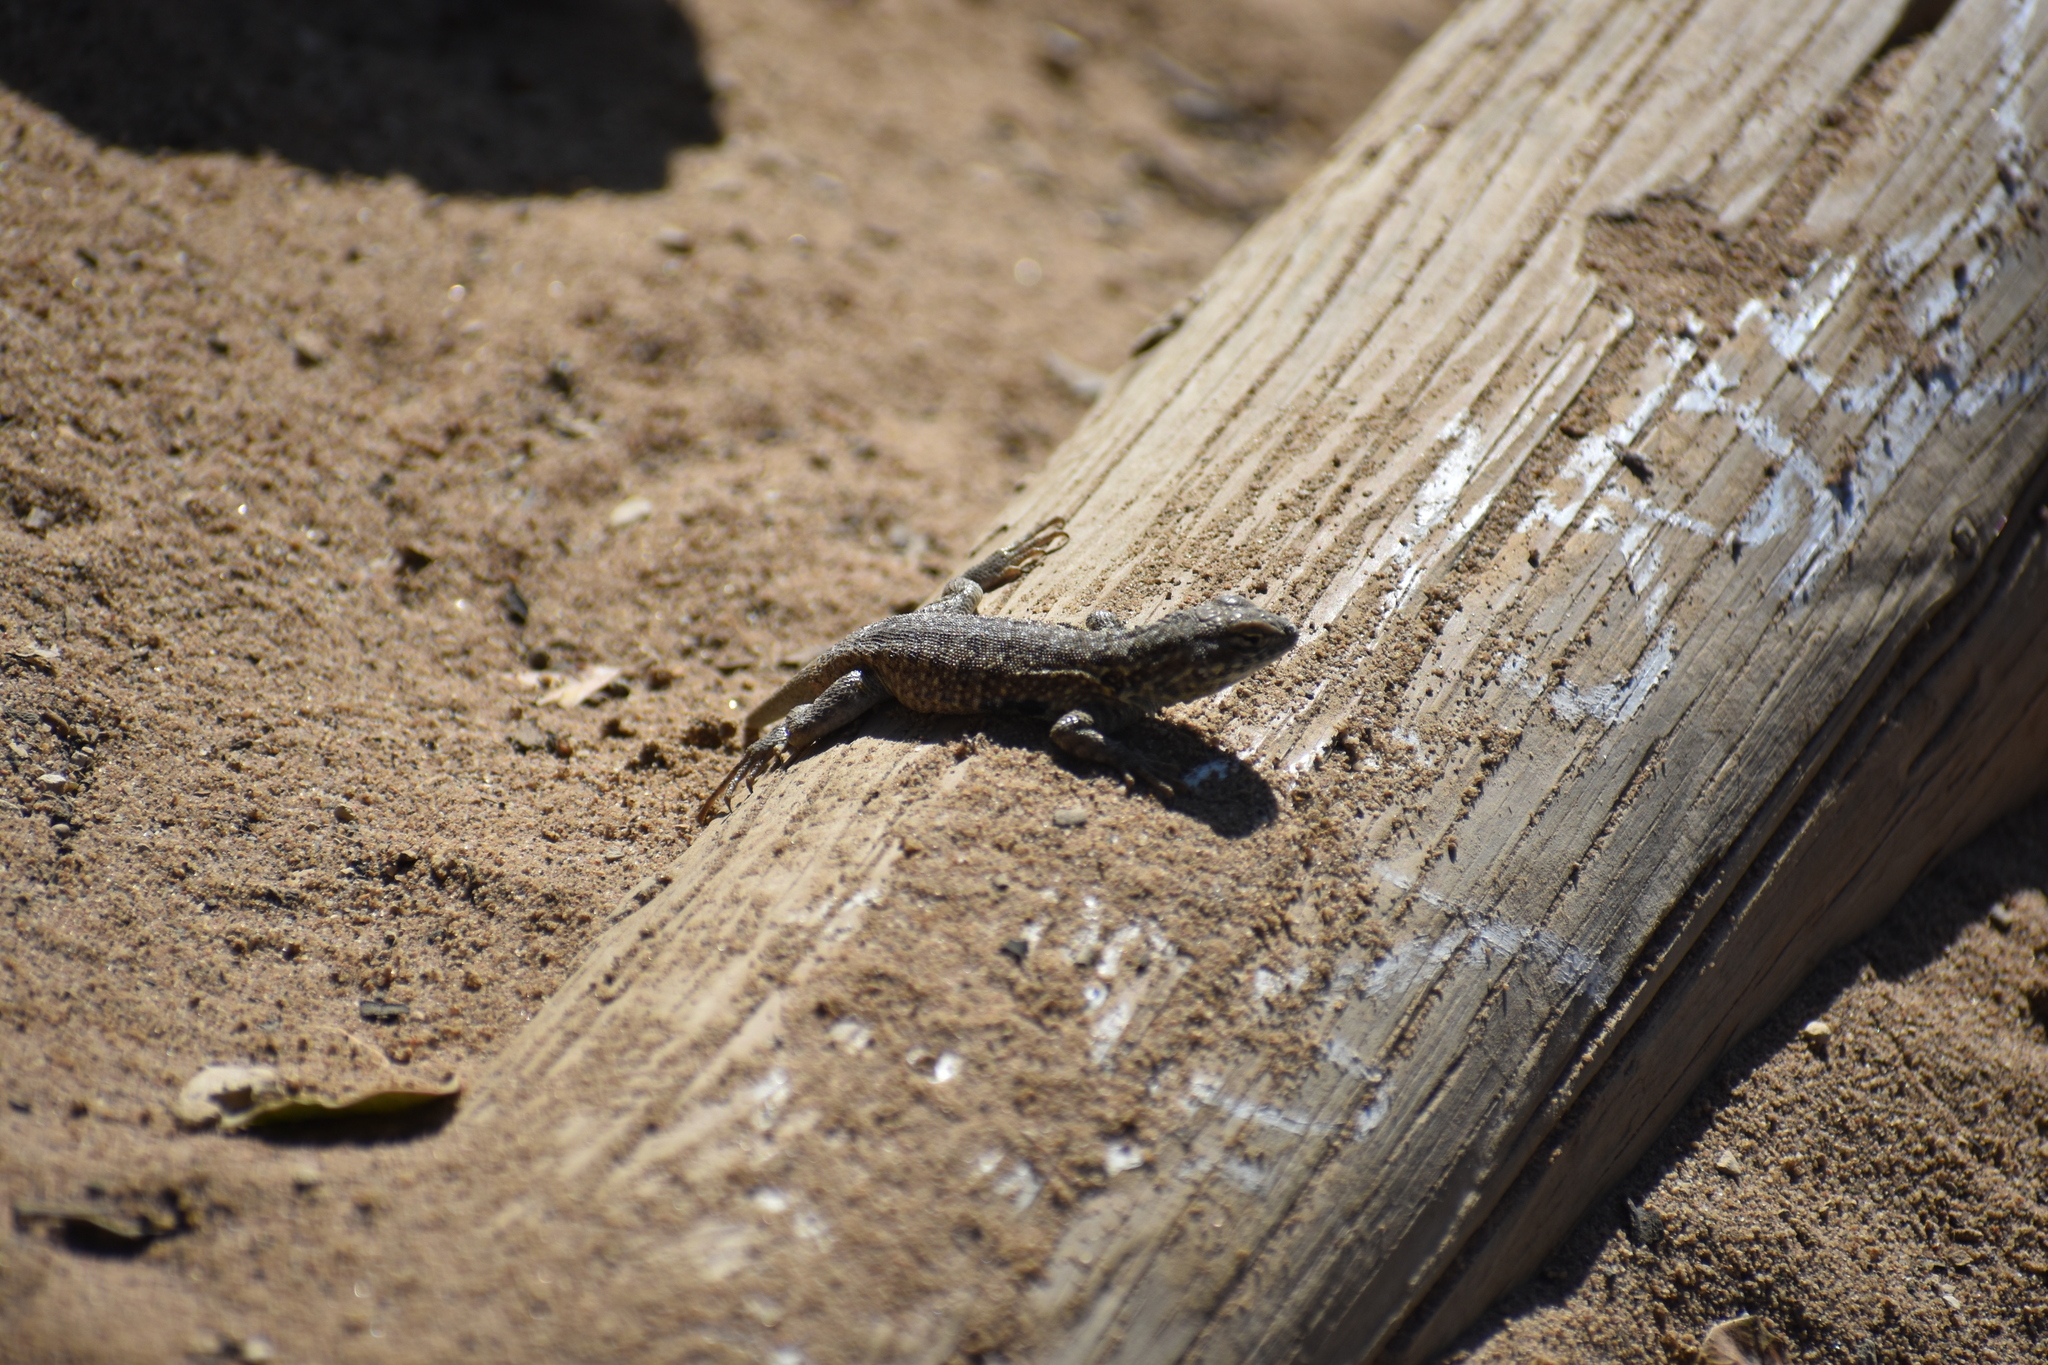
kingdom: Animalia
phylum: Chordata
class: Squamata
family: Phrynosomatidae
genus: Uta
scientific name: Uta stansburiana
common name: Side-blotched lizard
